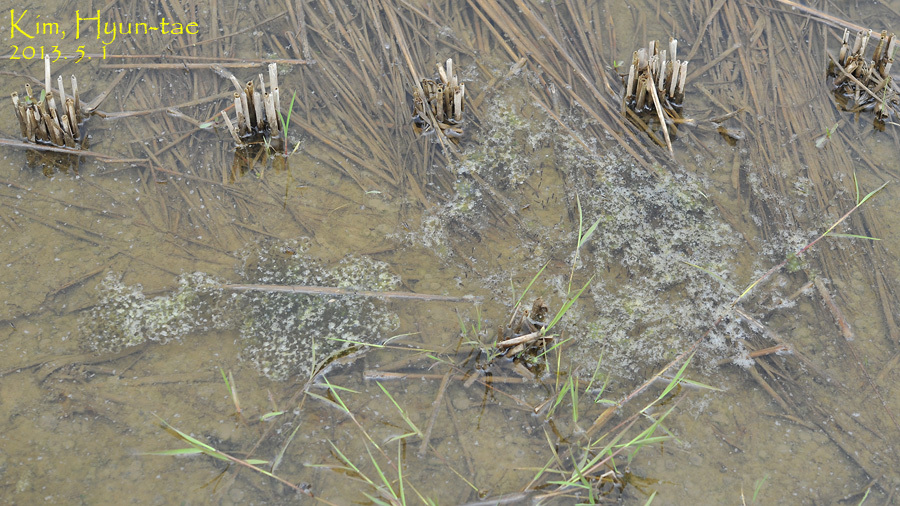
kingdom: Animalia
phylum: Chordata
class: Amphibia
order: Anura
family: Ranidae
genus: Pelophylax
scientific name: Pelophylax nigromaculatus
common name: Black-spotted pond frog
